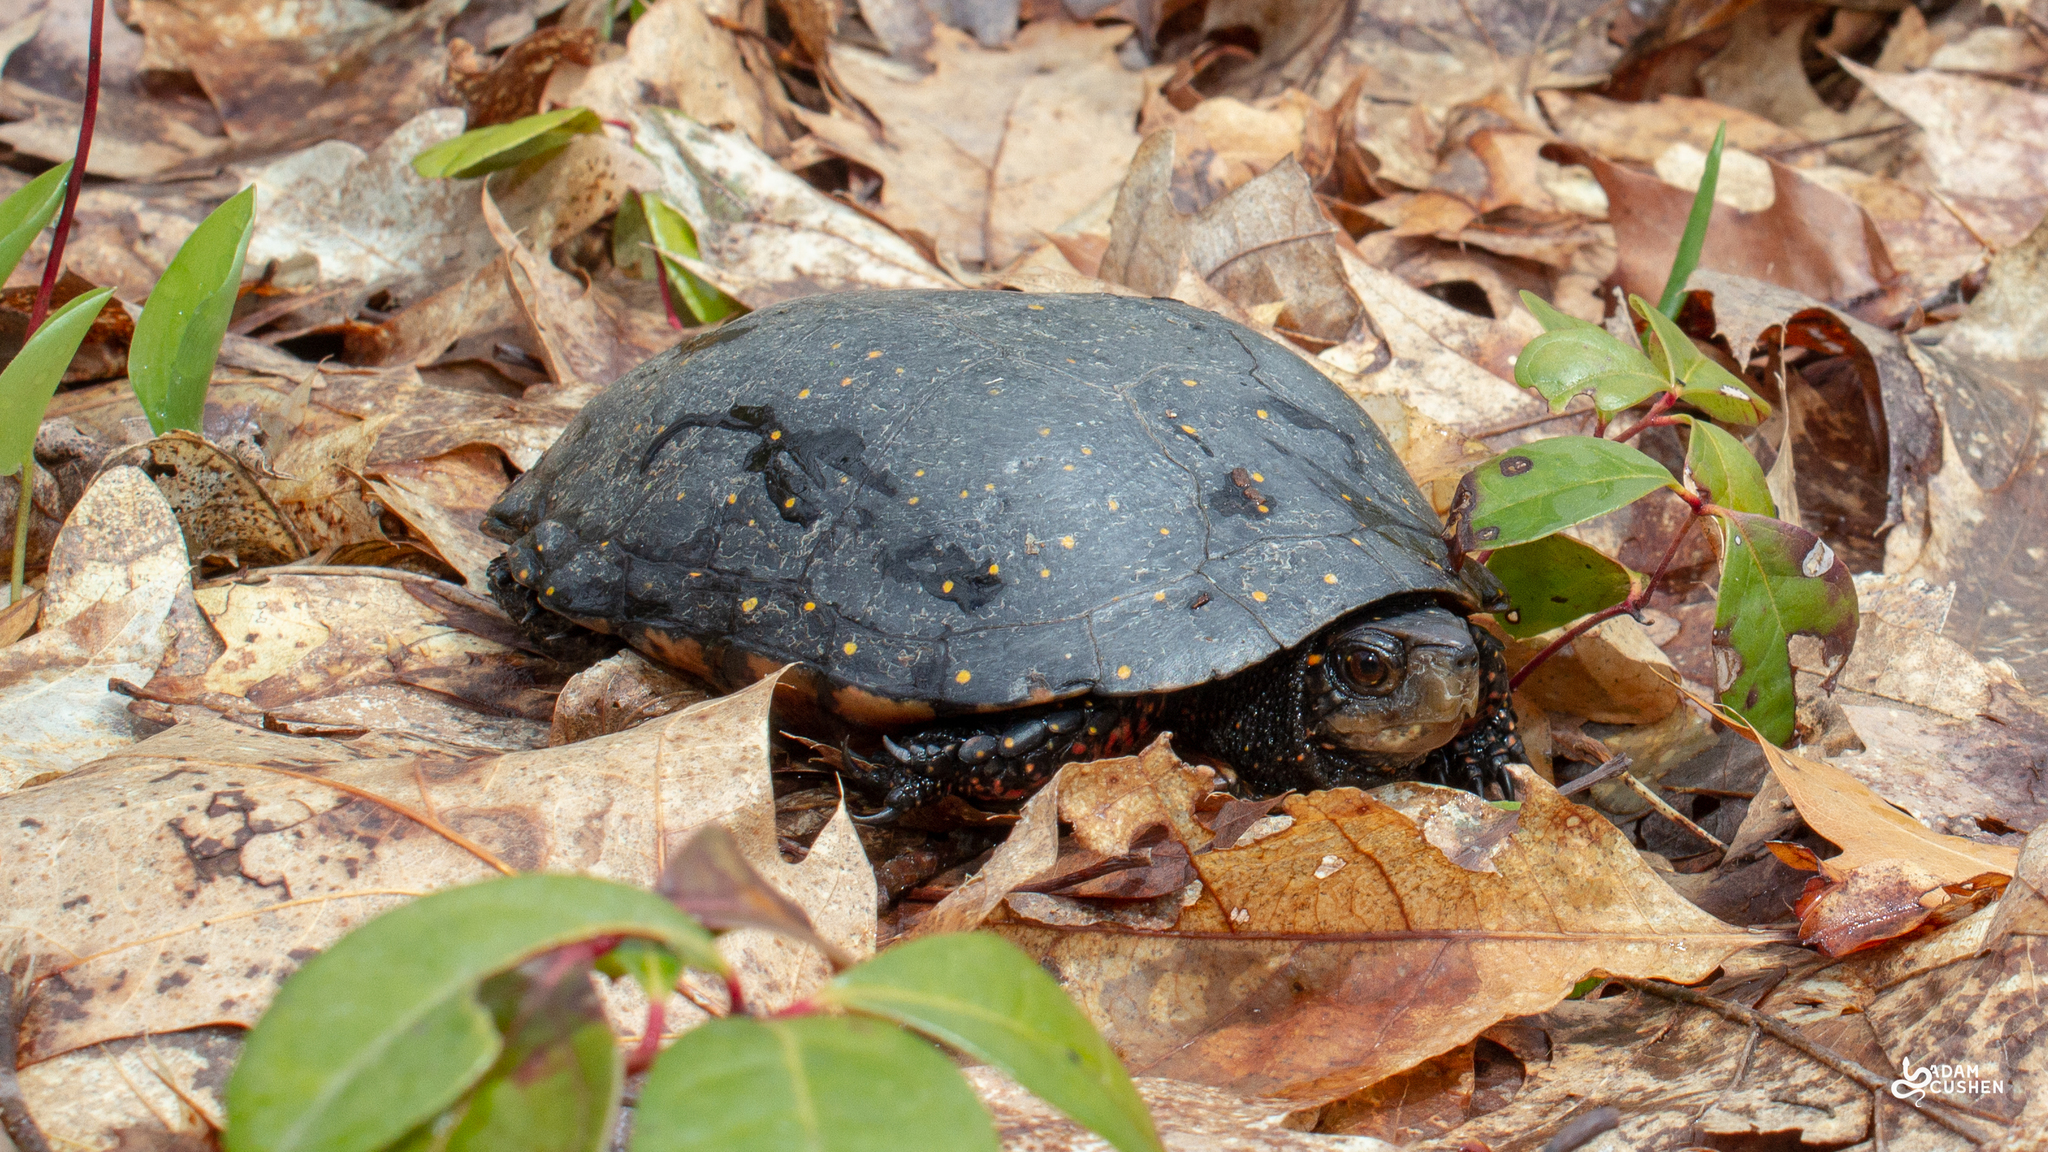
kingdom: Animalia
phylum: Chordata
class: Testudines
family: Emydidae
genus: Clemmys
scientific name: Clemmys guttata
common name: Spotted turtle
